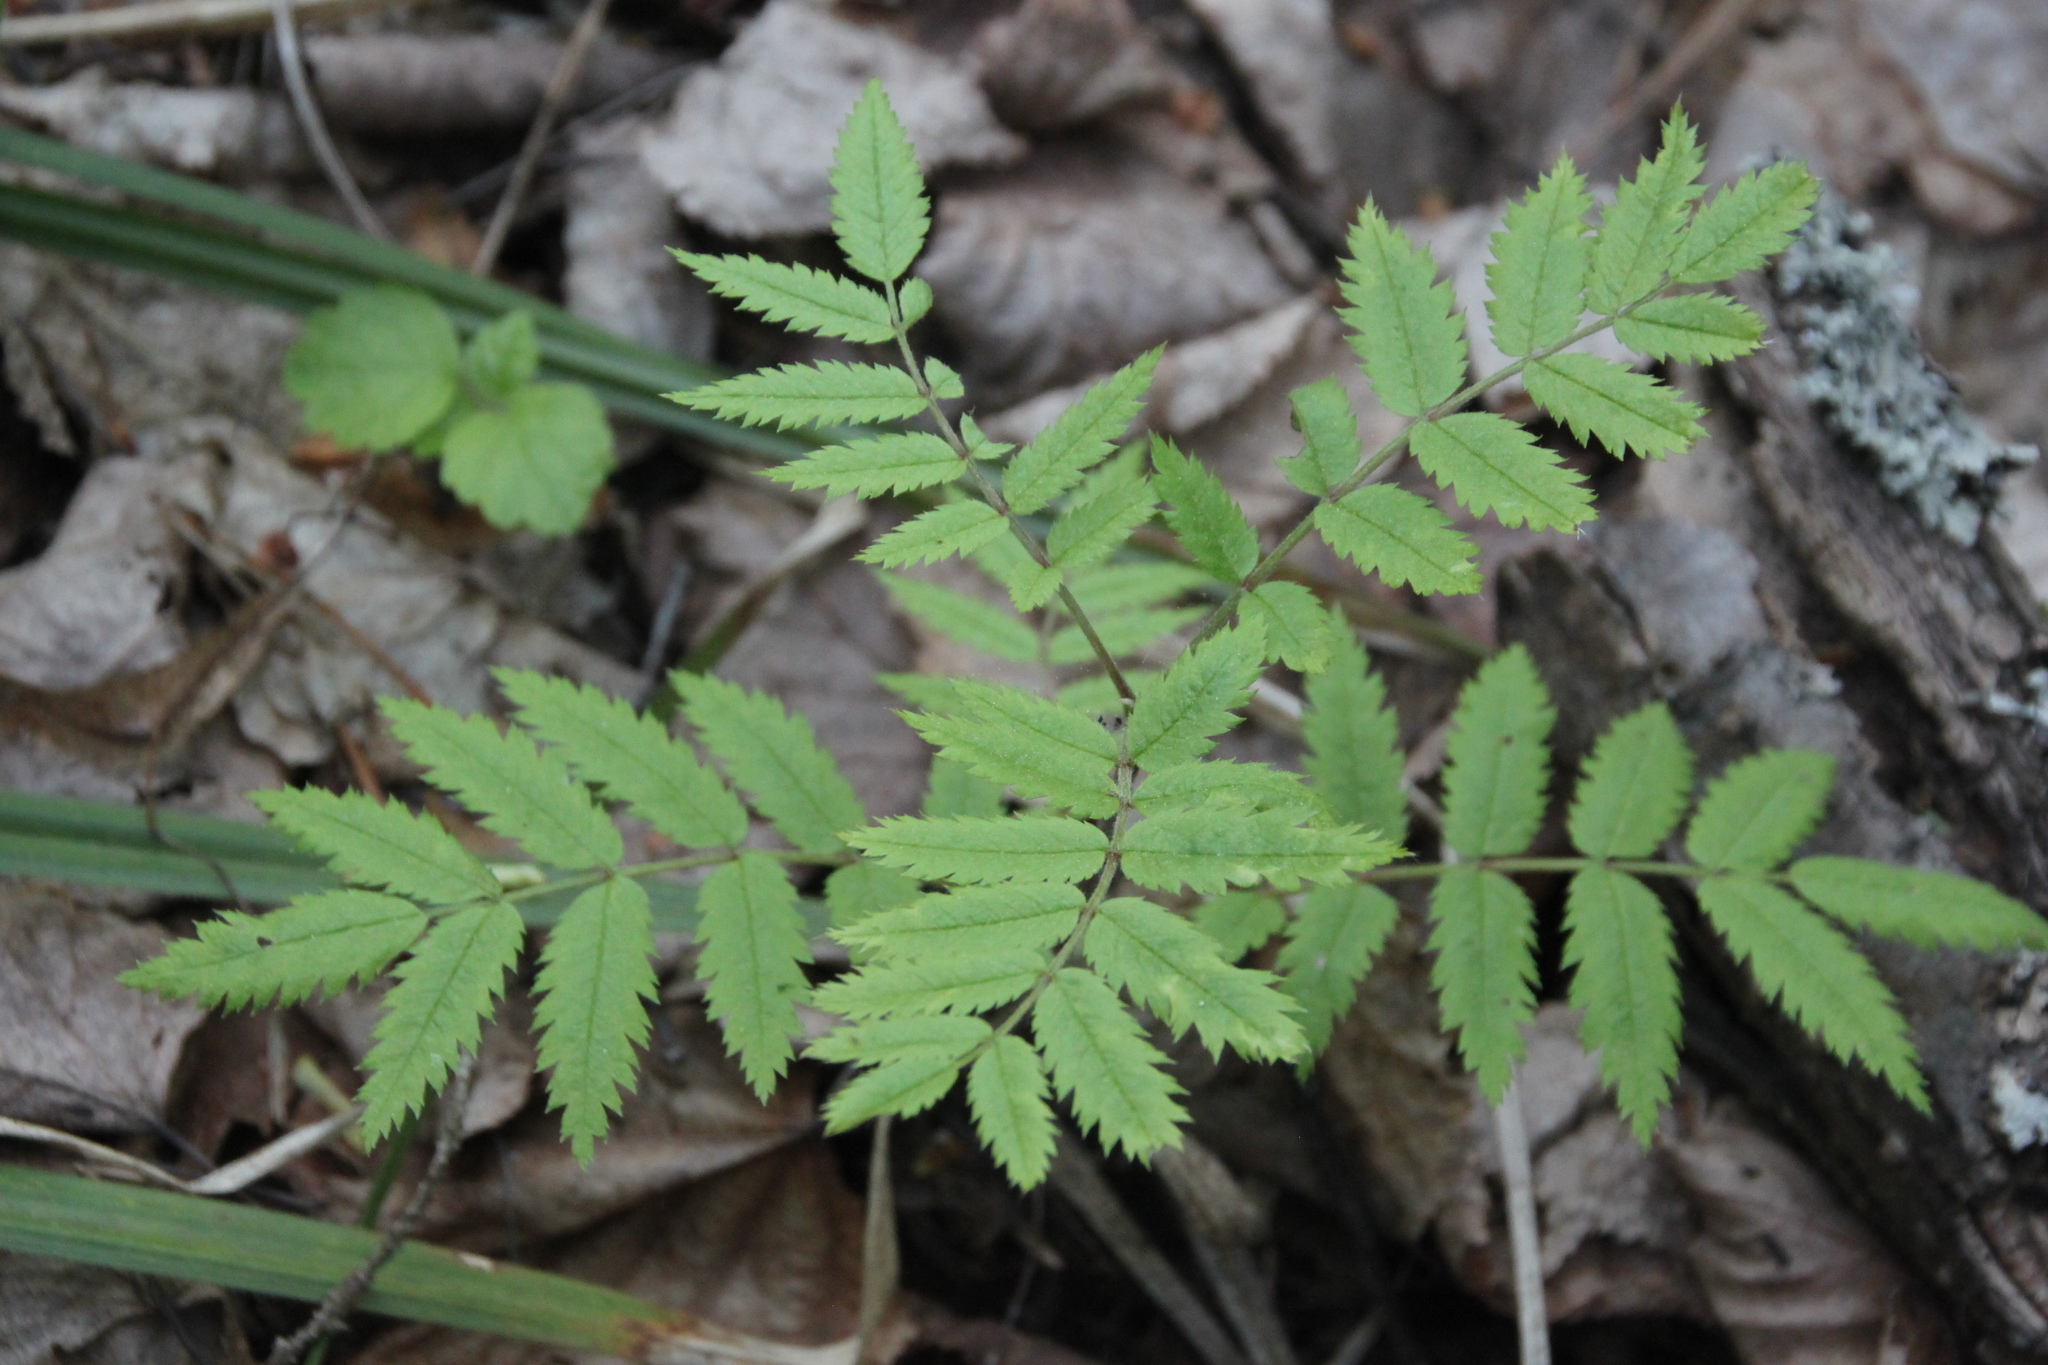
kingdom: Plantae
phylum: Tracheophyta
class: Magnoliopsida
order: Rosales
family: Rosaceae
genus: Sorbus
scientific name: Sorbus aucuparia
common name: Rowan
